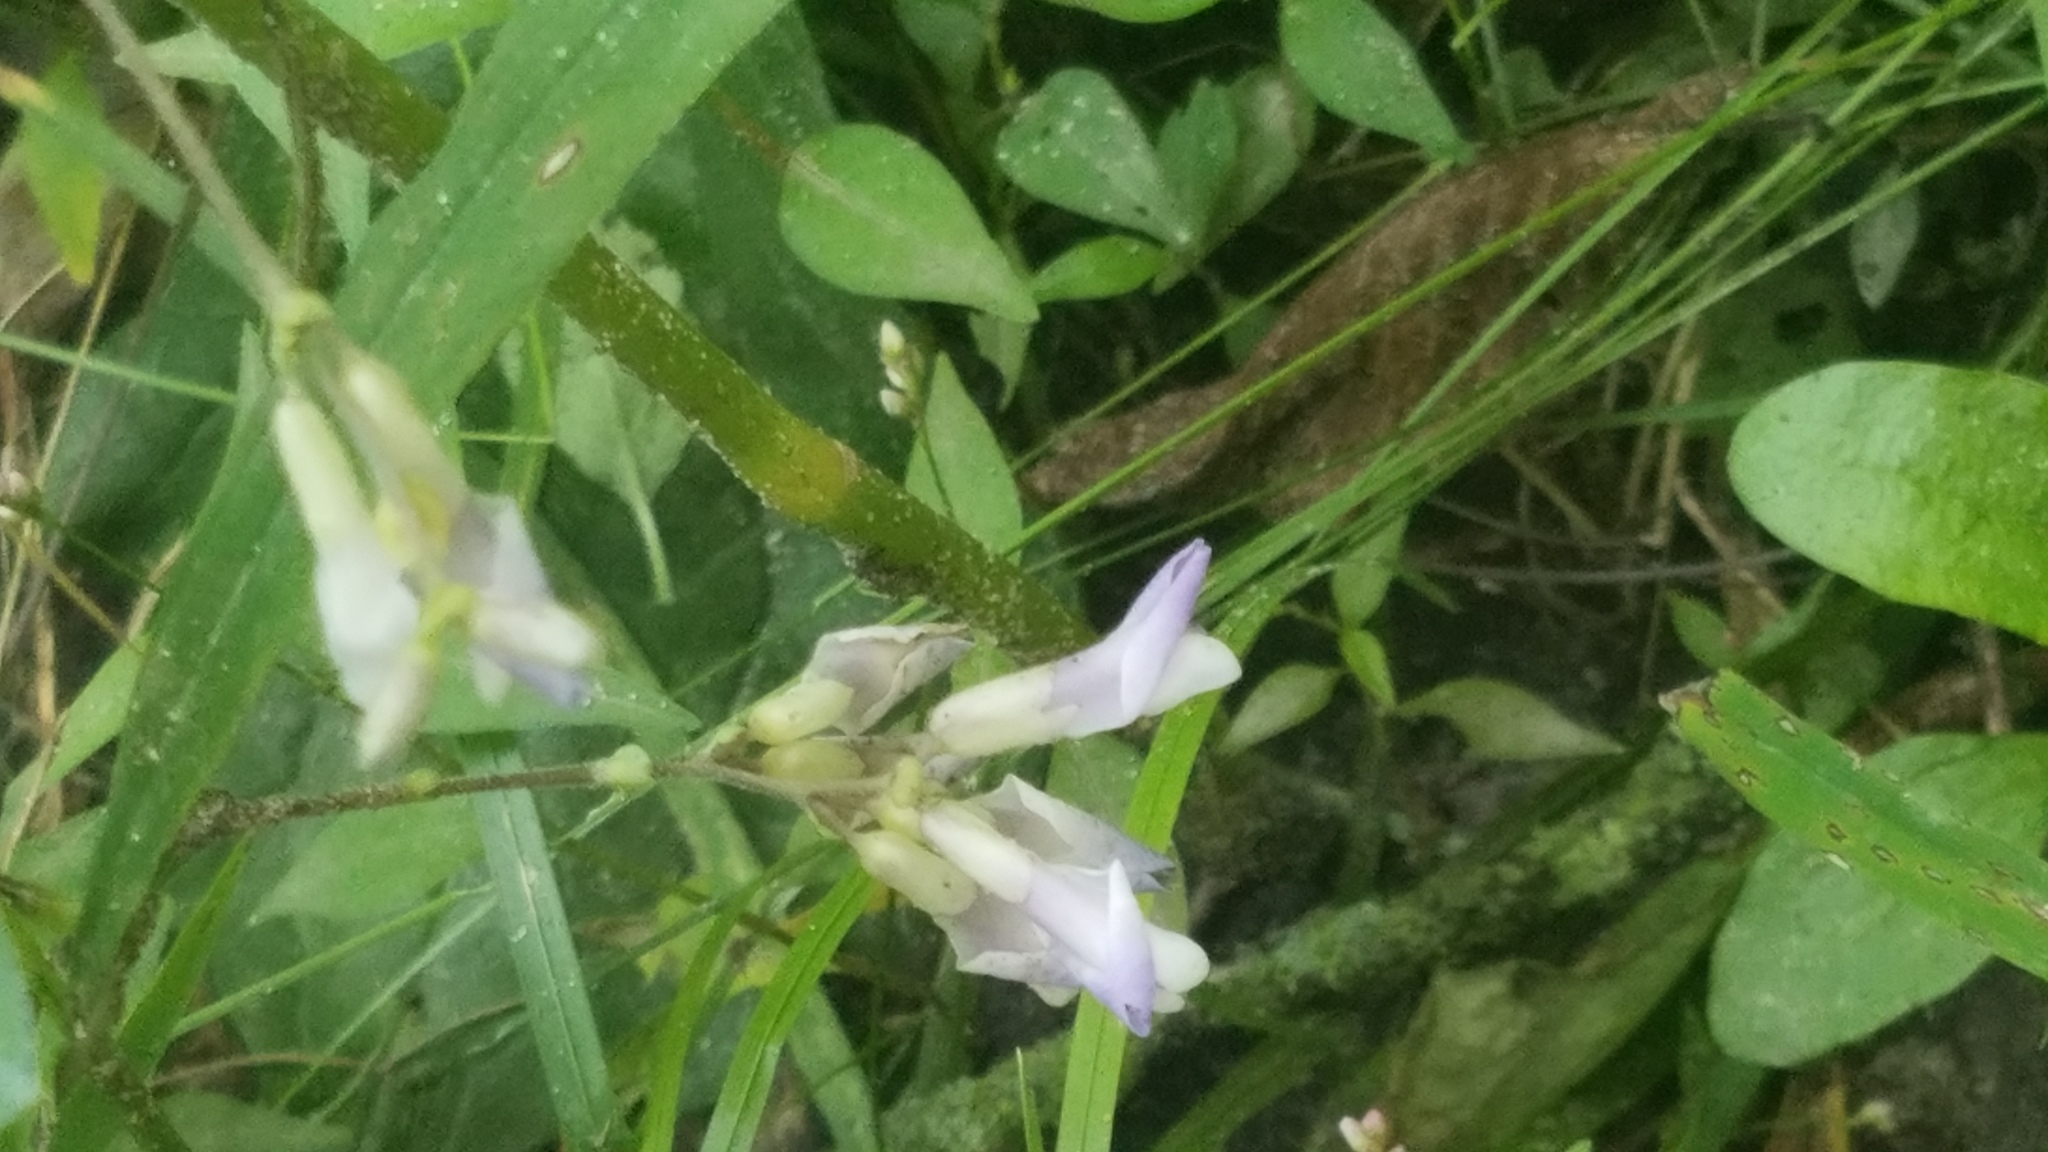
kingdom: Plantae
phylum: Tracheophyta
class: Magnoliopsida
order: Fabales
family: Fabaceae
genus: Amphicarpaea
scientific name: Amphicarpaea bracteata
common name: American hog peanut
